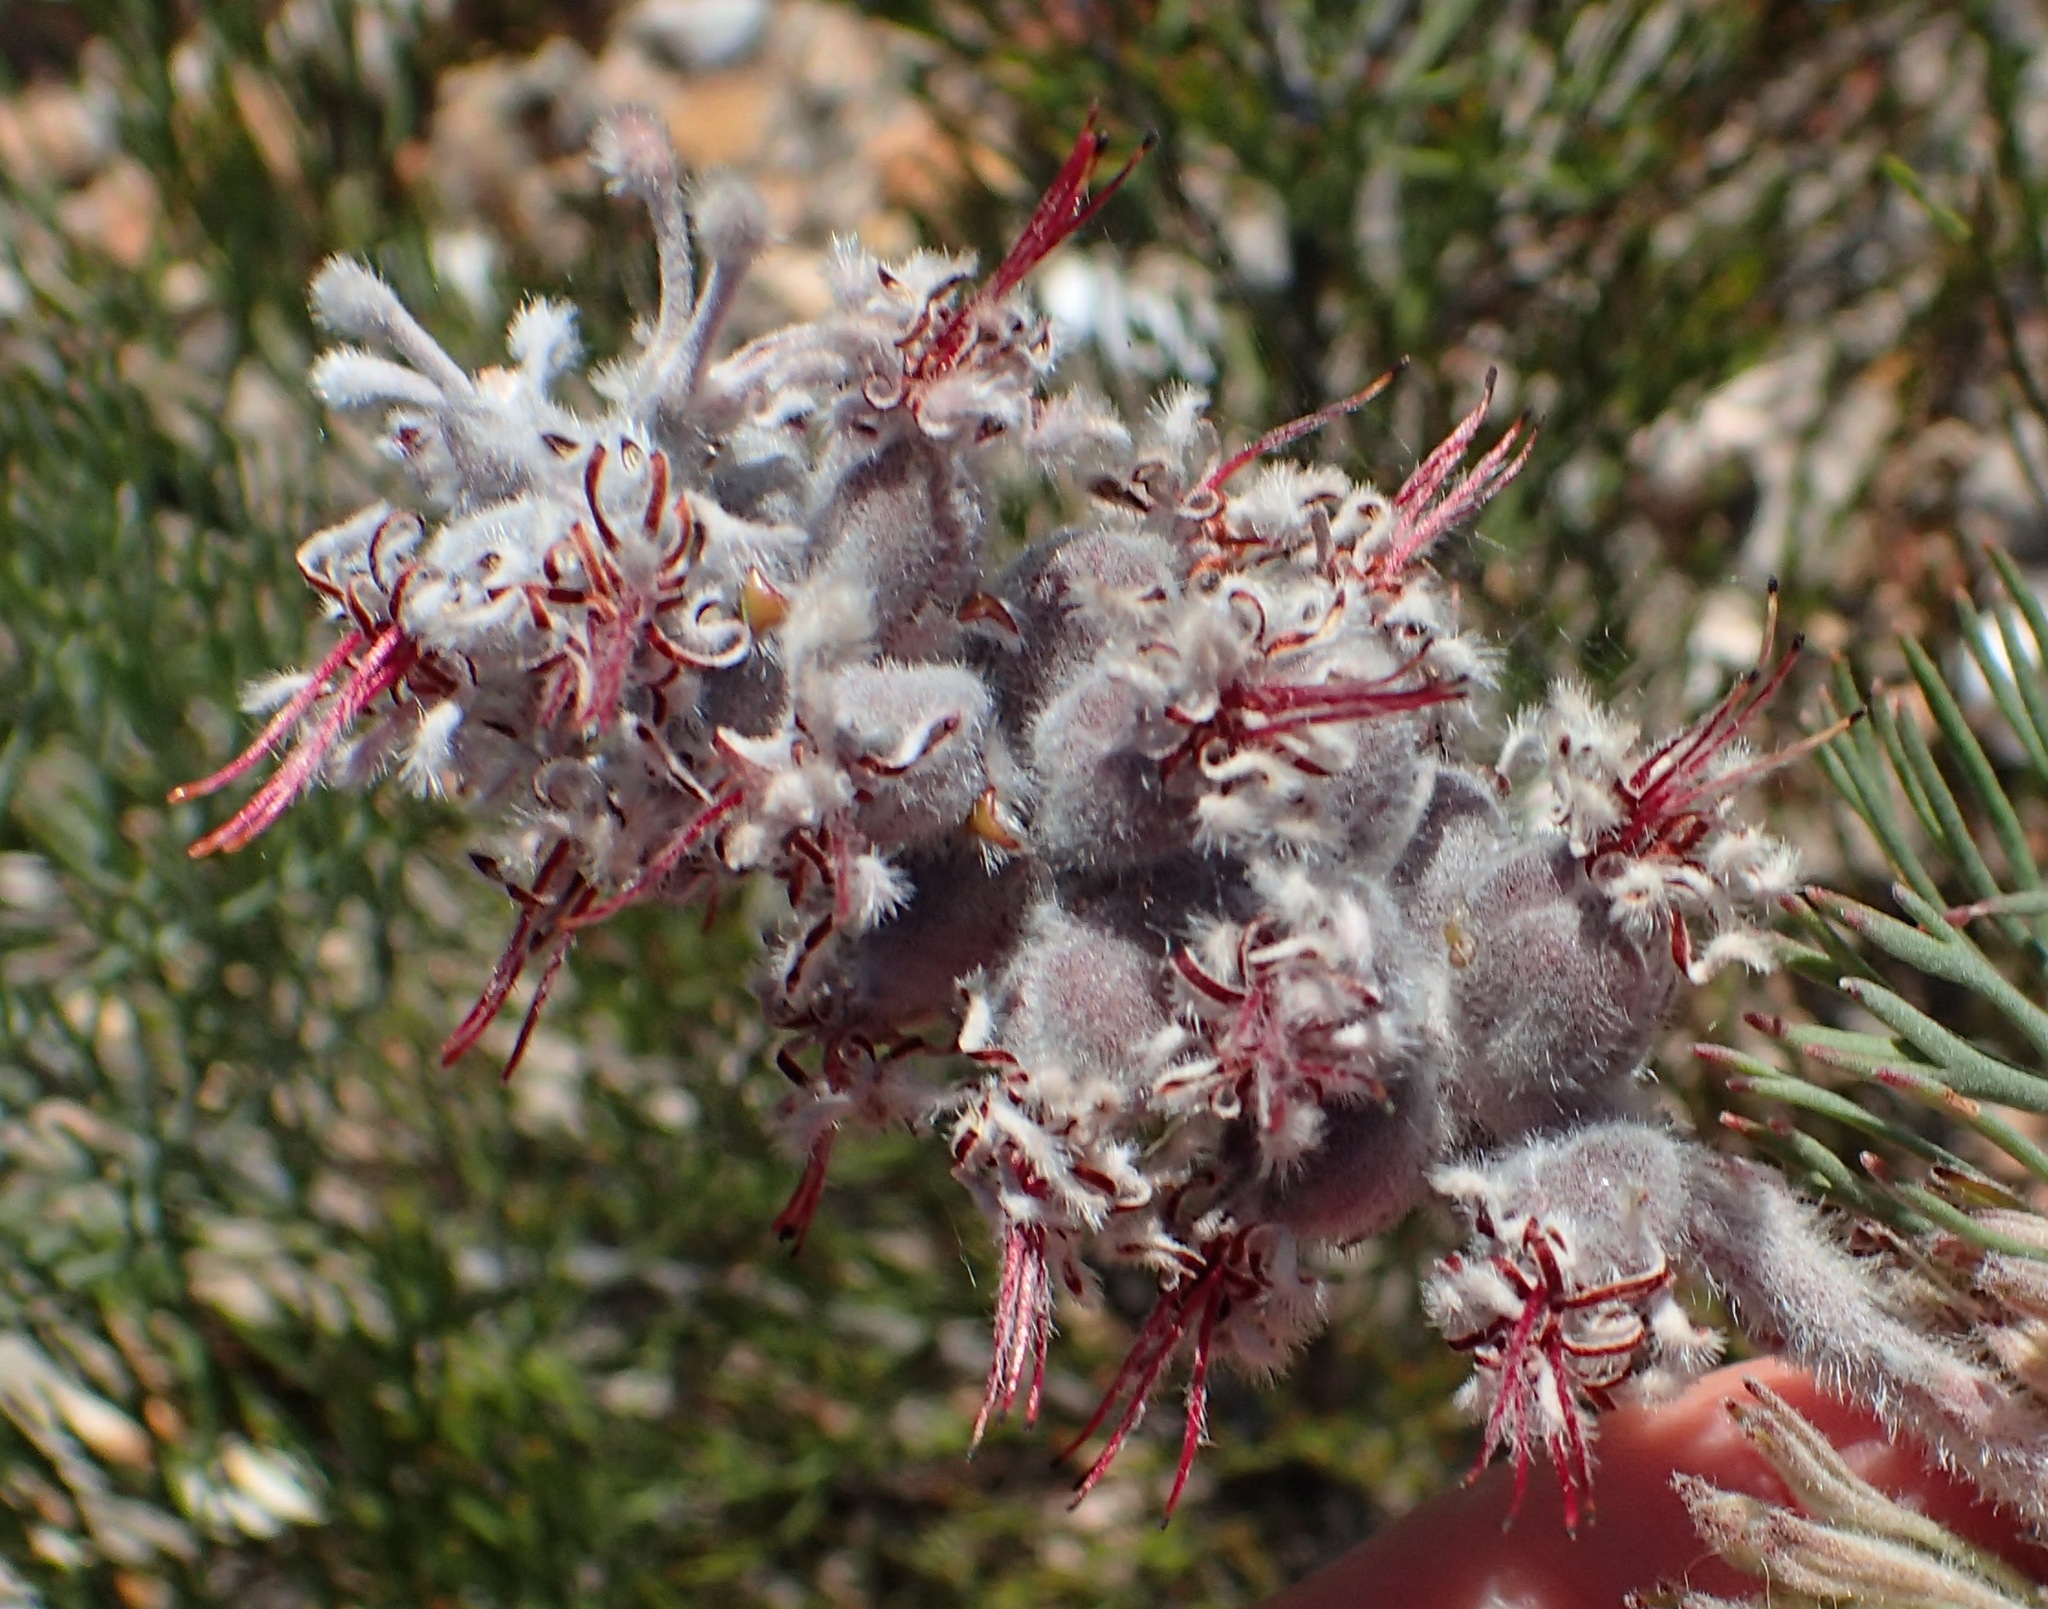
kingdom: Plantae
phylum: Tracheophyta
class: Magnoliopsida
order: Proteales
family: Proteaceae
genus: Paranomus
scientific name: Paranomus dispersus
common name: Long-head sceptre
